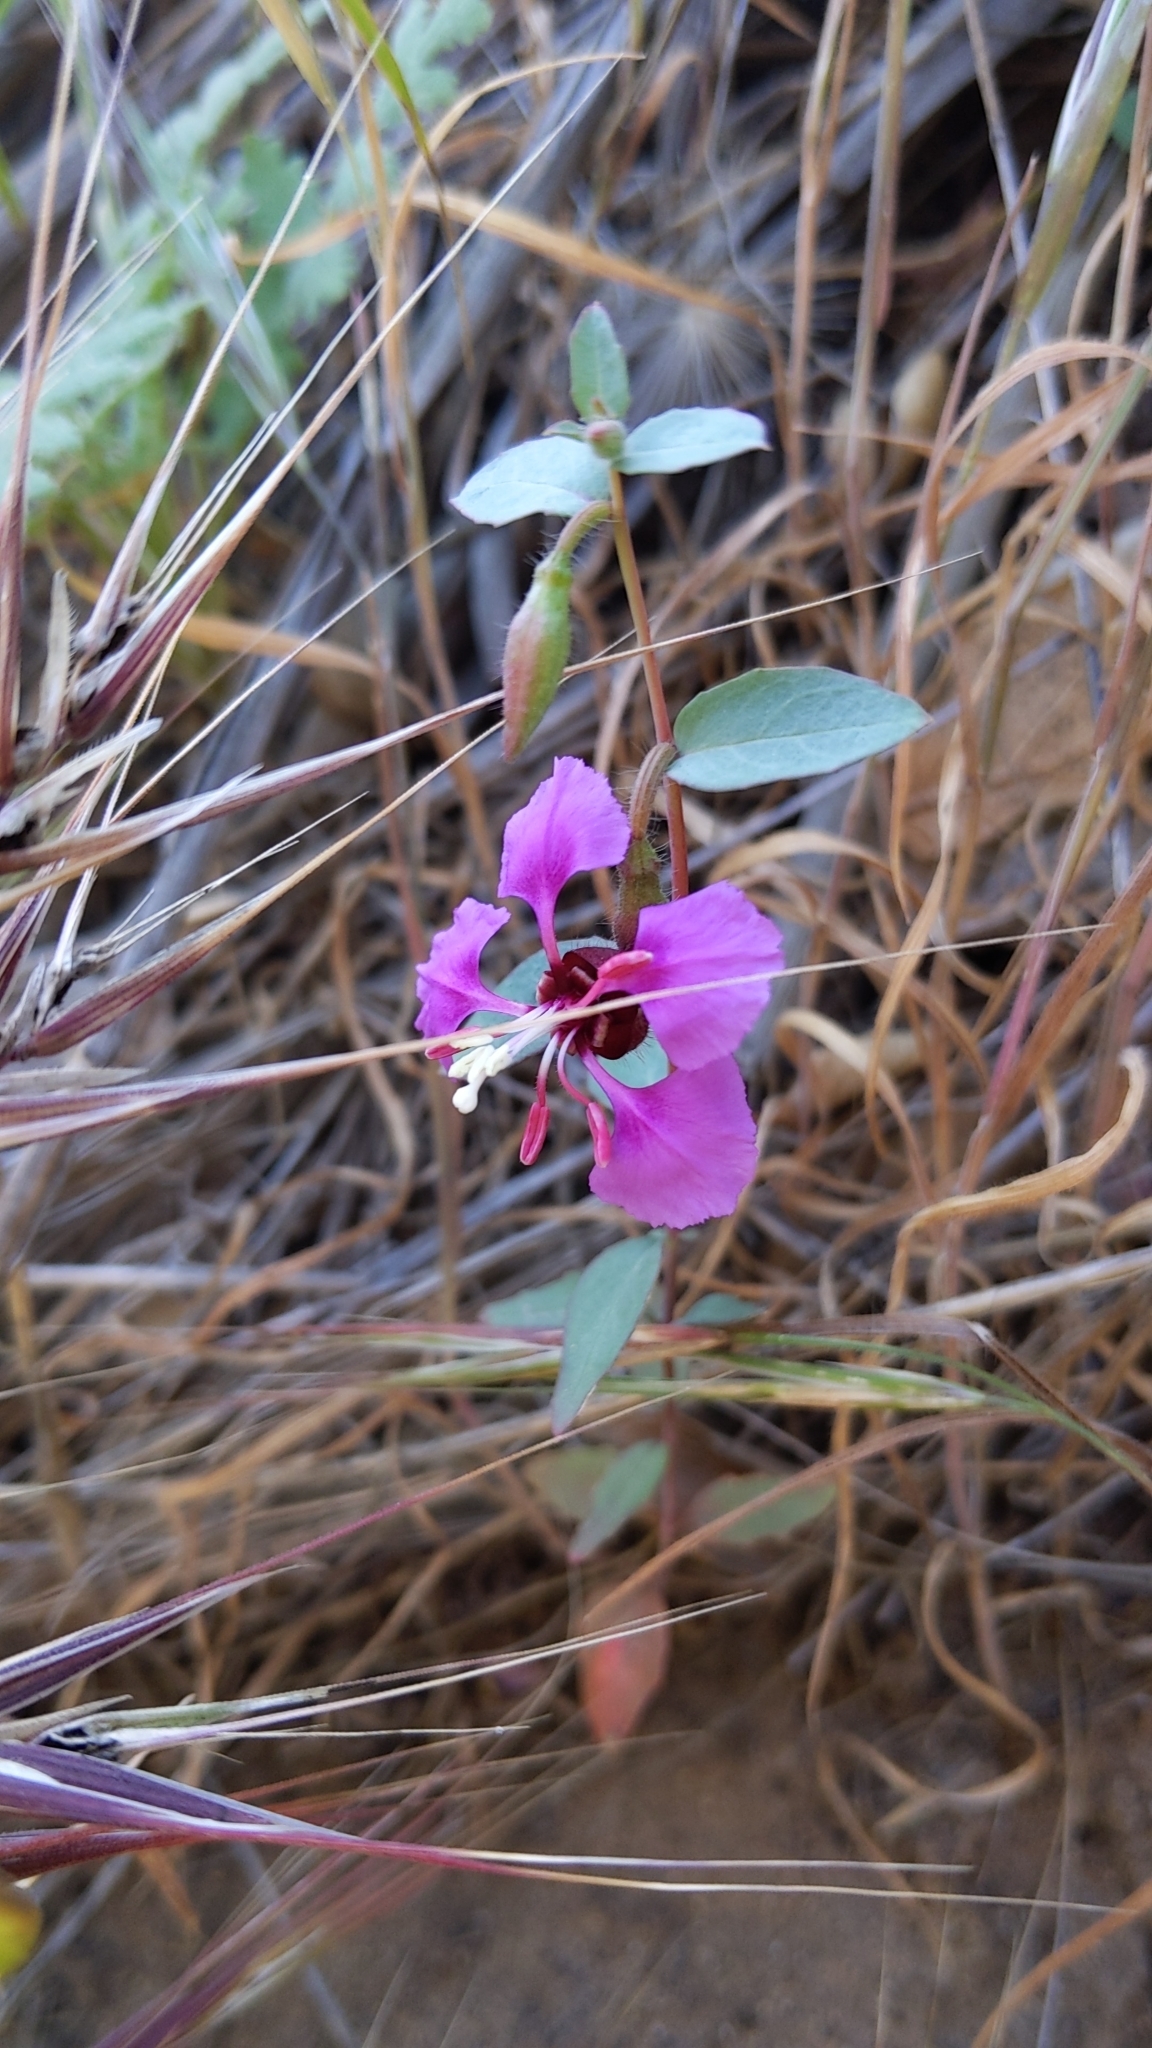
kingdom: Plantae
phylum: Tracheophyta
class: Magnoliopsida
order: Myrtales
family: Onagraceae
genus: Clarkia
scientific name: Clarkia unguiculata
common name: Clarkia
